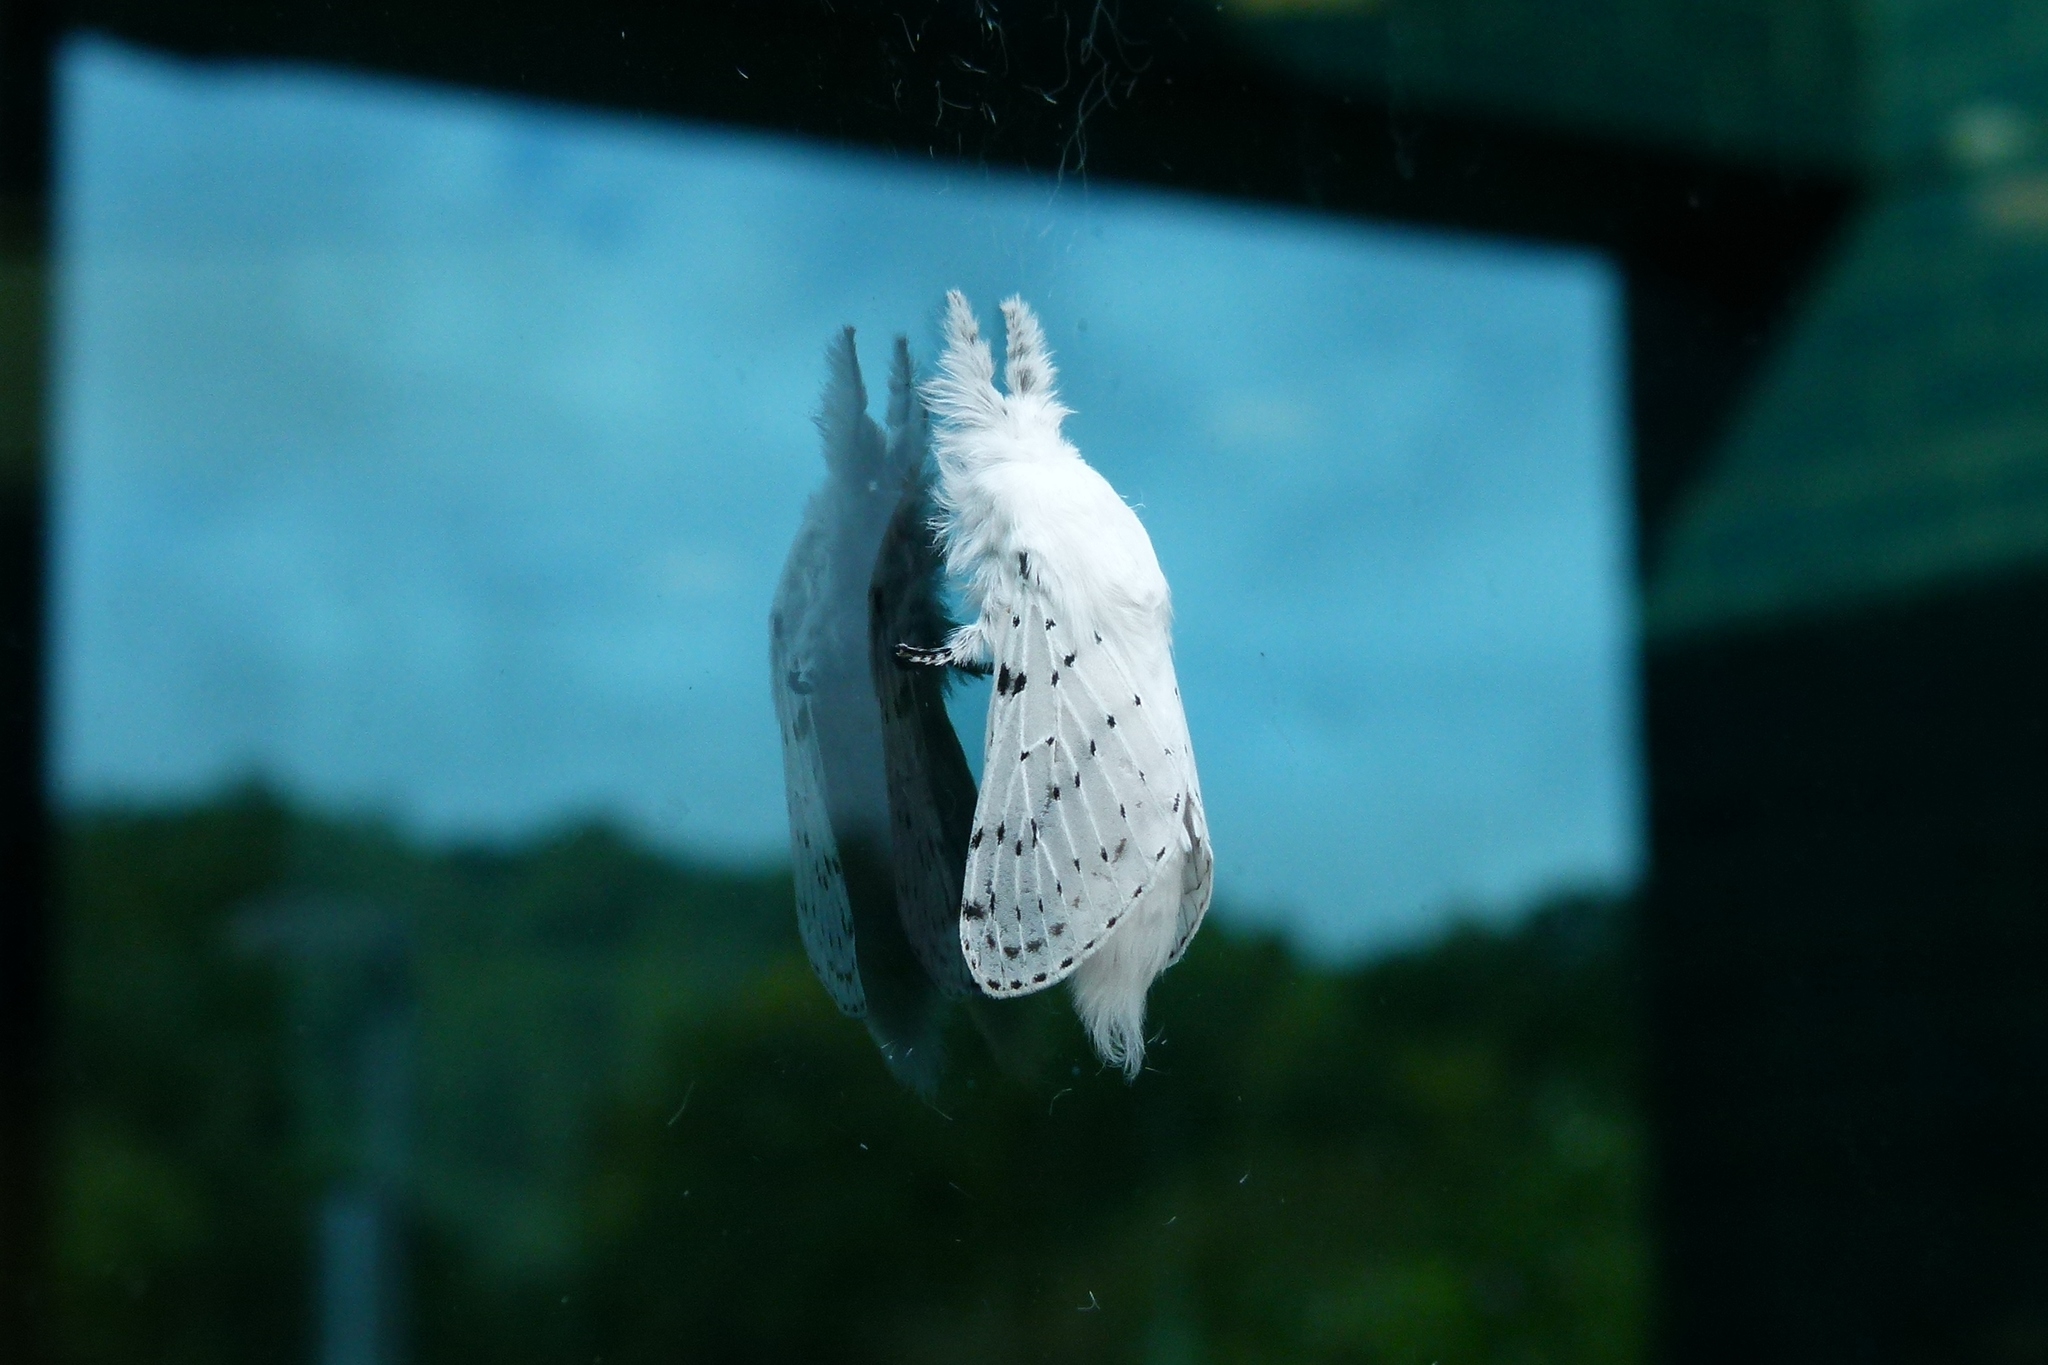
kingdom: Animalia
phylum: Arthropoda
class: Insecta
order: Lepidoptera
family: Lasiocampidae
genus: Artace
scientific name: Artace cribrarius
